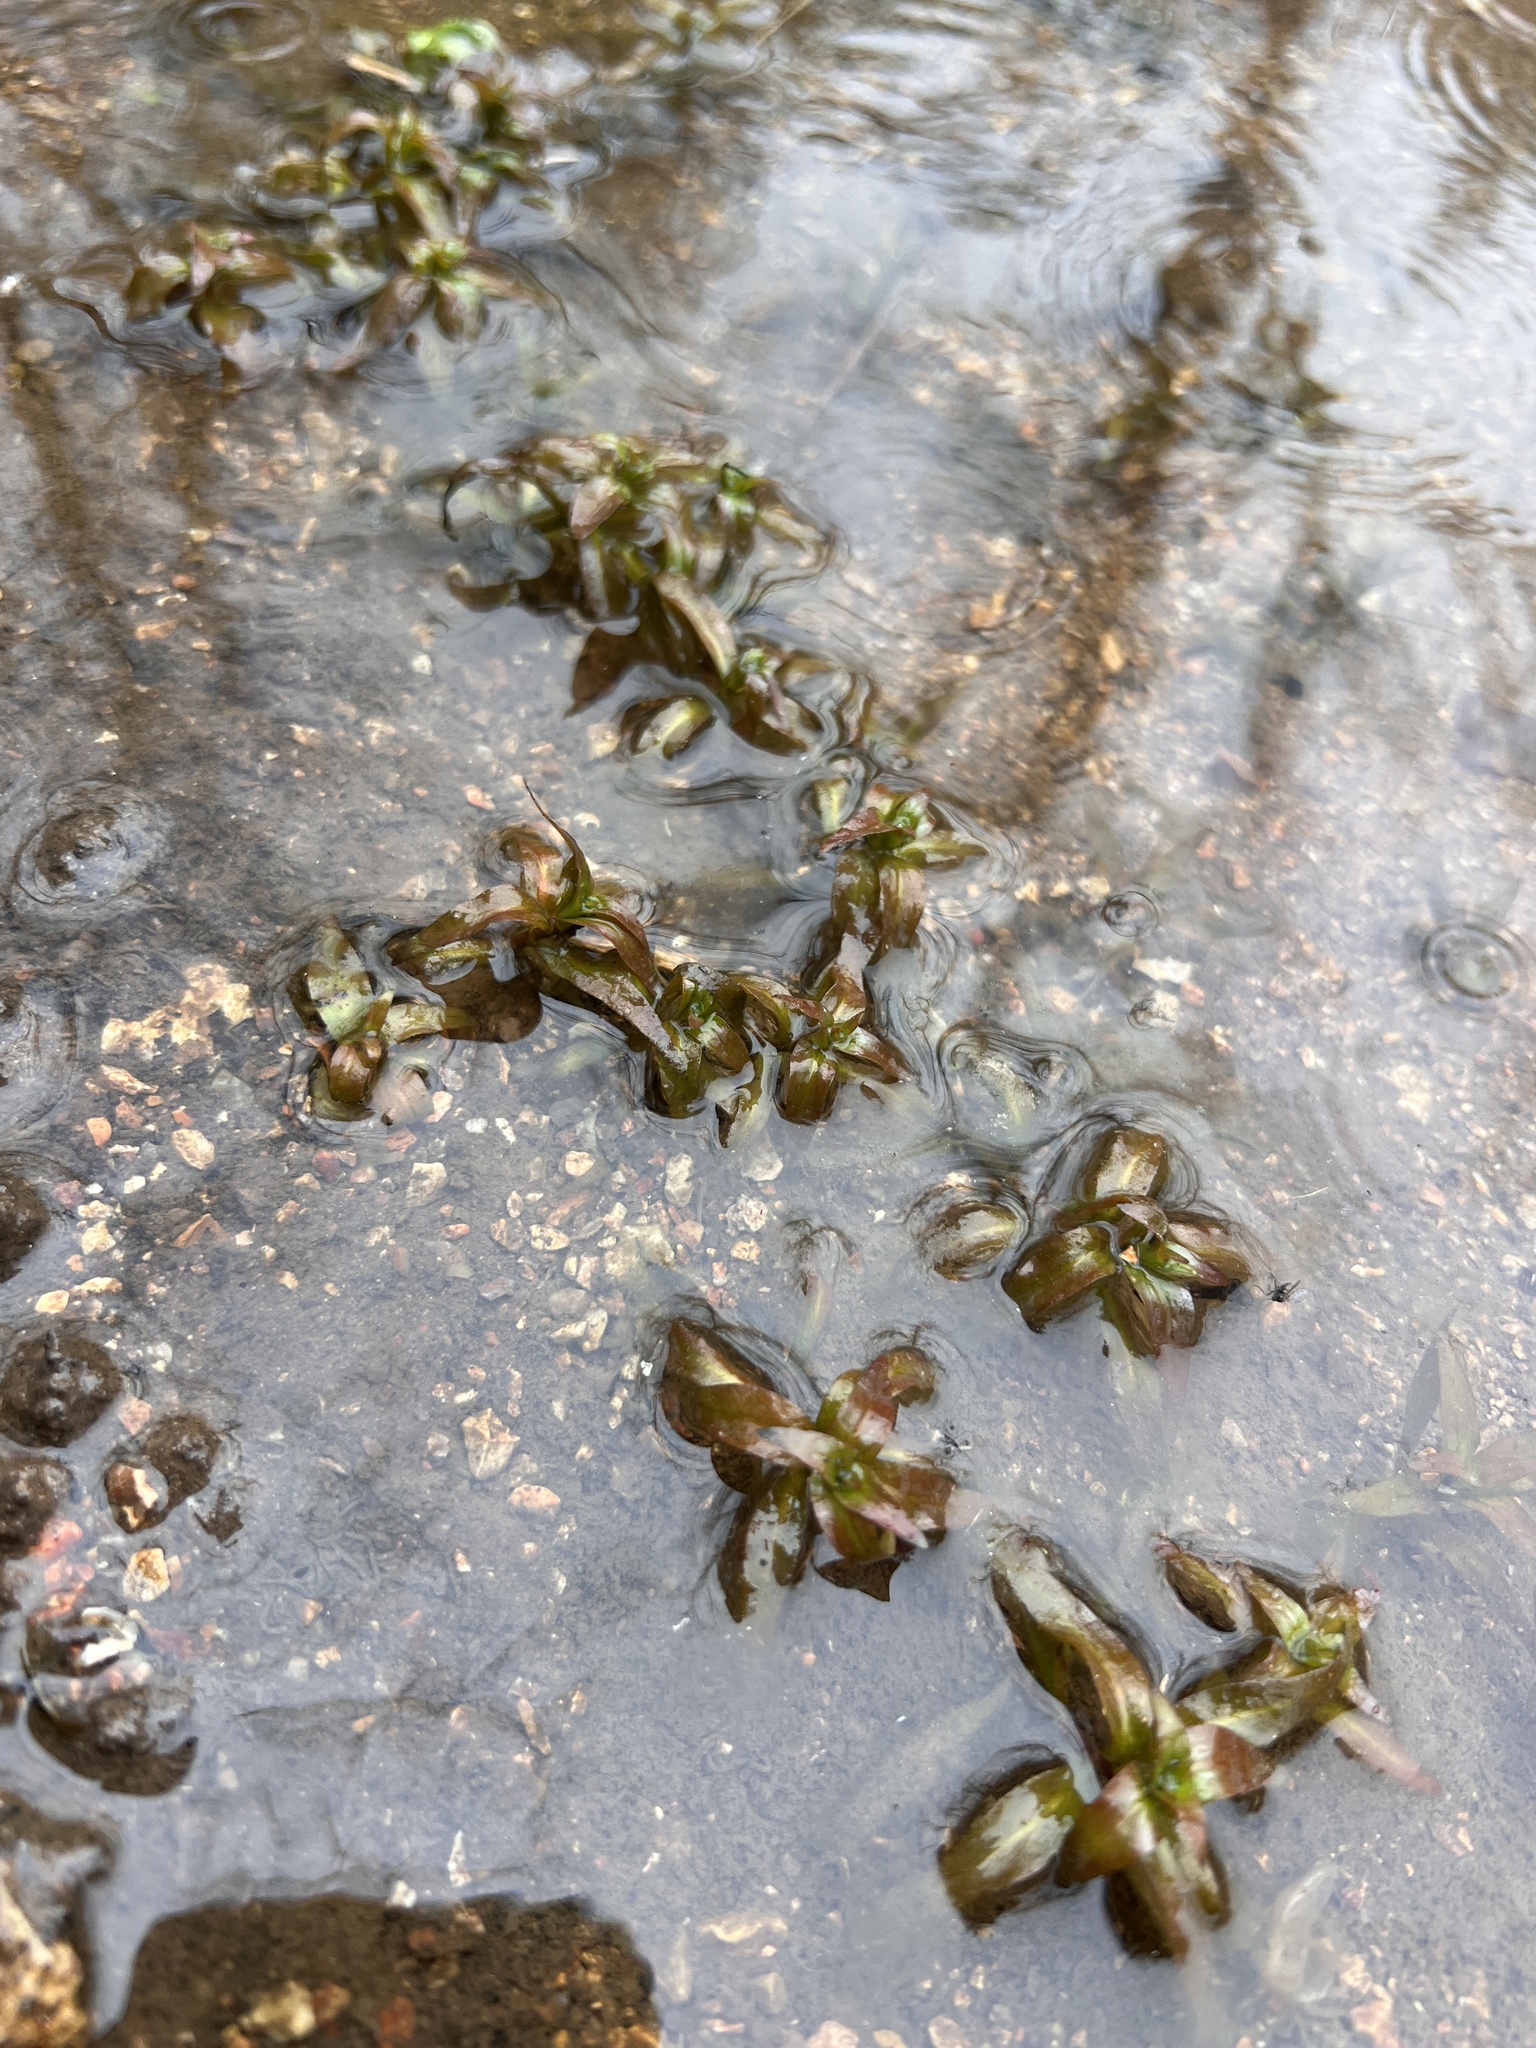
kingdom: Plantae
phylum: Tracheophyta
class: Magnoliopsida
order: Myrtales
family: Onagraceae
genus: Ludwigia
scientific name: Ludwigia palustris
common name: Hampshire-purslane
